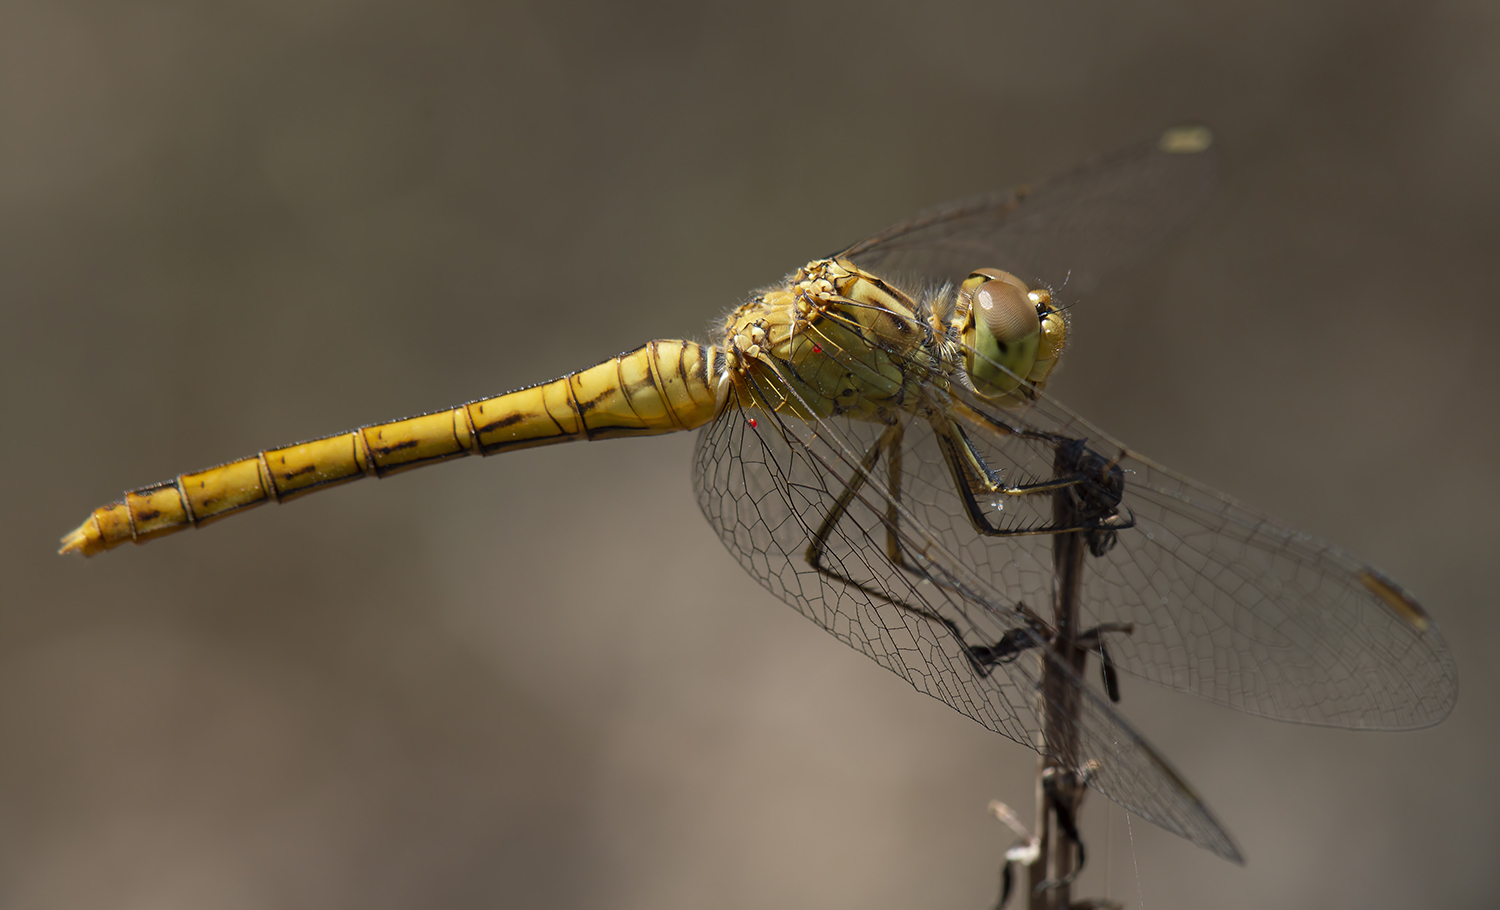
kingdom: Animalia
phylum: Arthropoda
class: Insecta
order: Odonata
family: Libellulidae
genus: Sympetrum
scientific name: Sympetrum meridionale
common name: Southern darter
